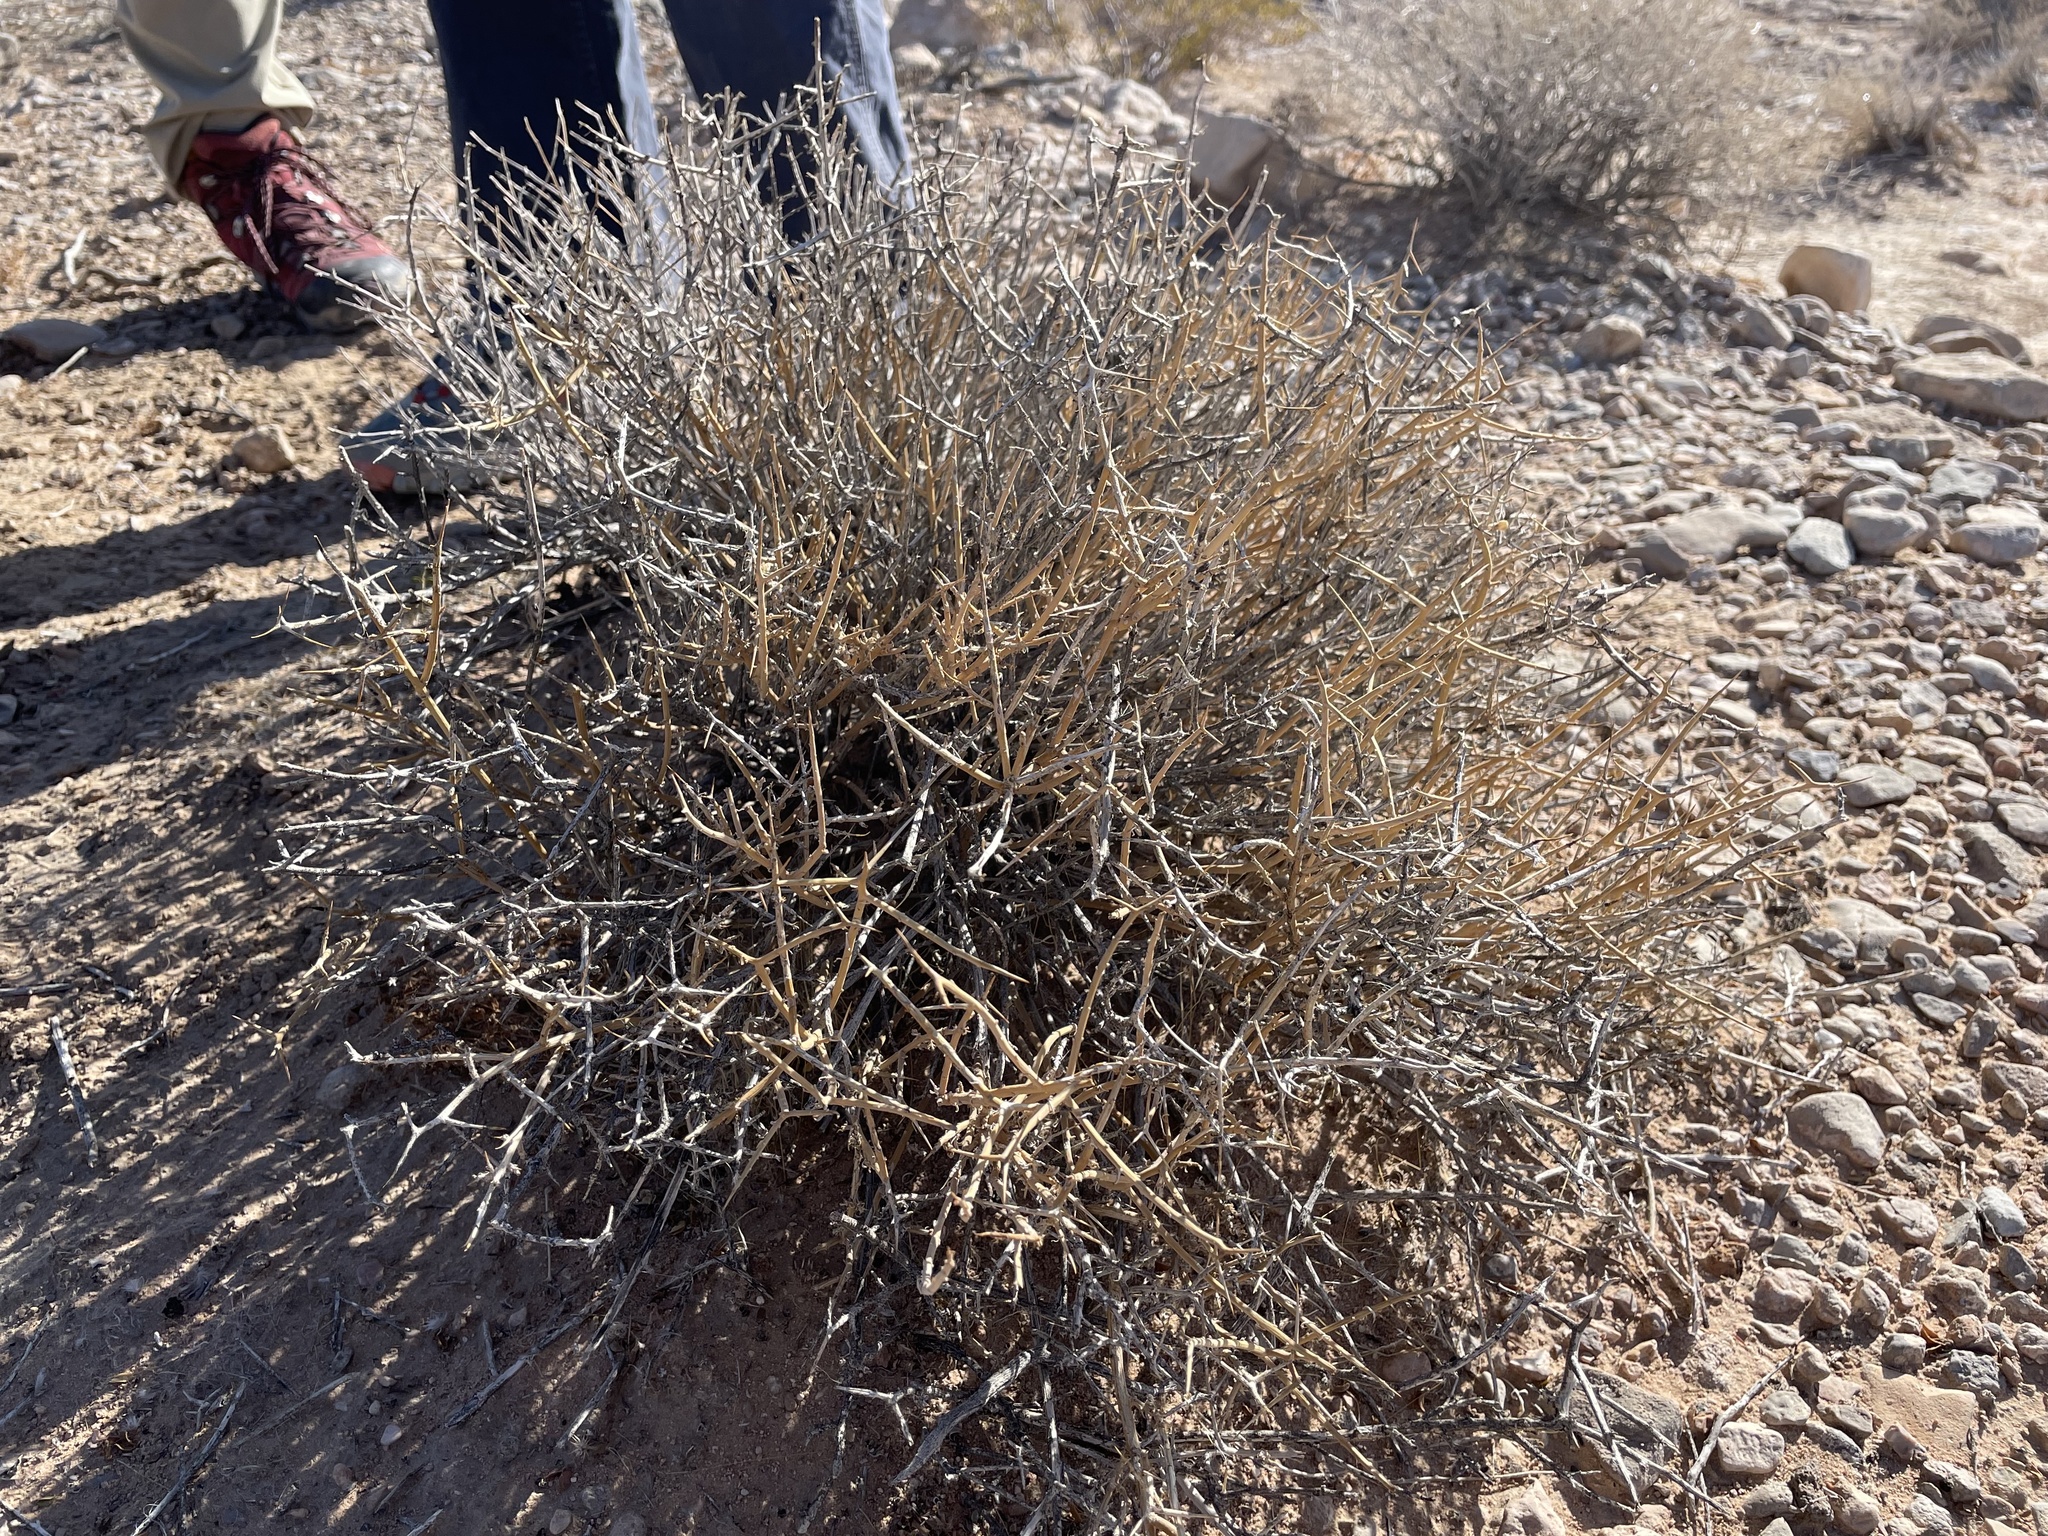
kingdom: Plantae
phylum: Tracheophyta
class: Magnoliopsida
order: Lamiales
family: Oleaceae
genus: Menodora
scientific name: Menodora spinescens
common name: Spiny menodora
